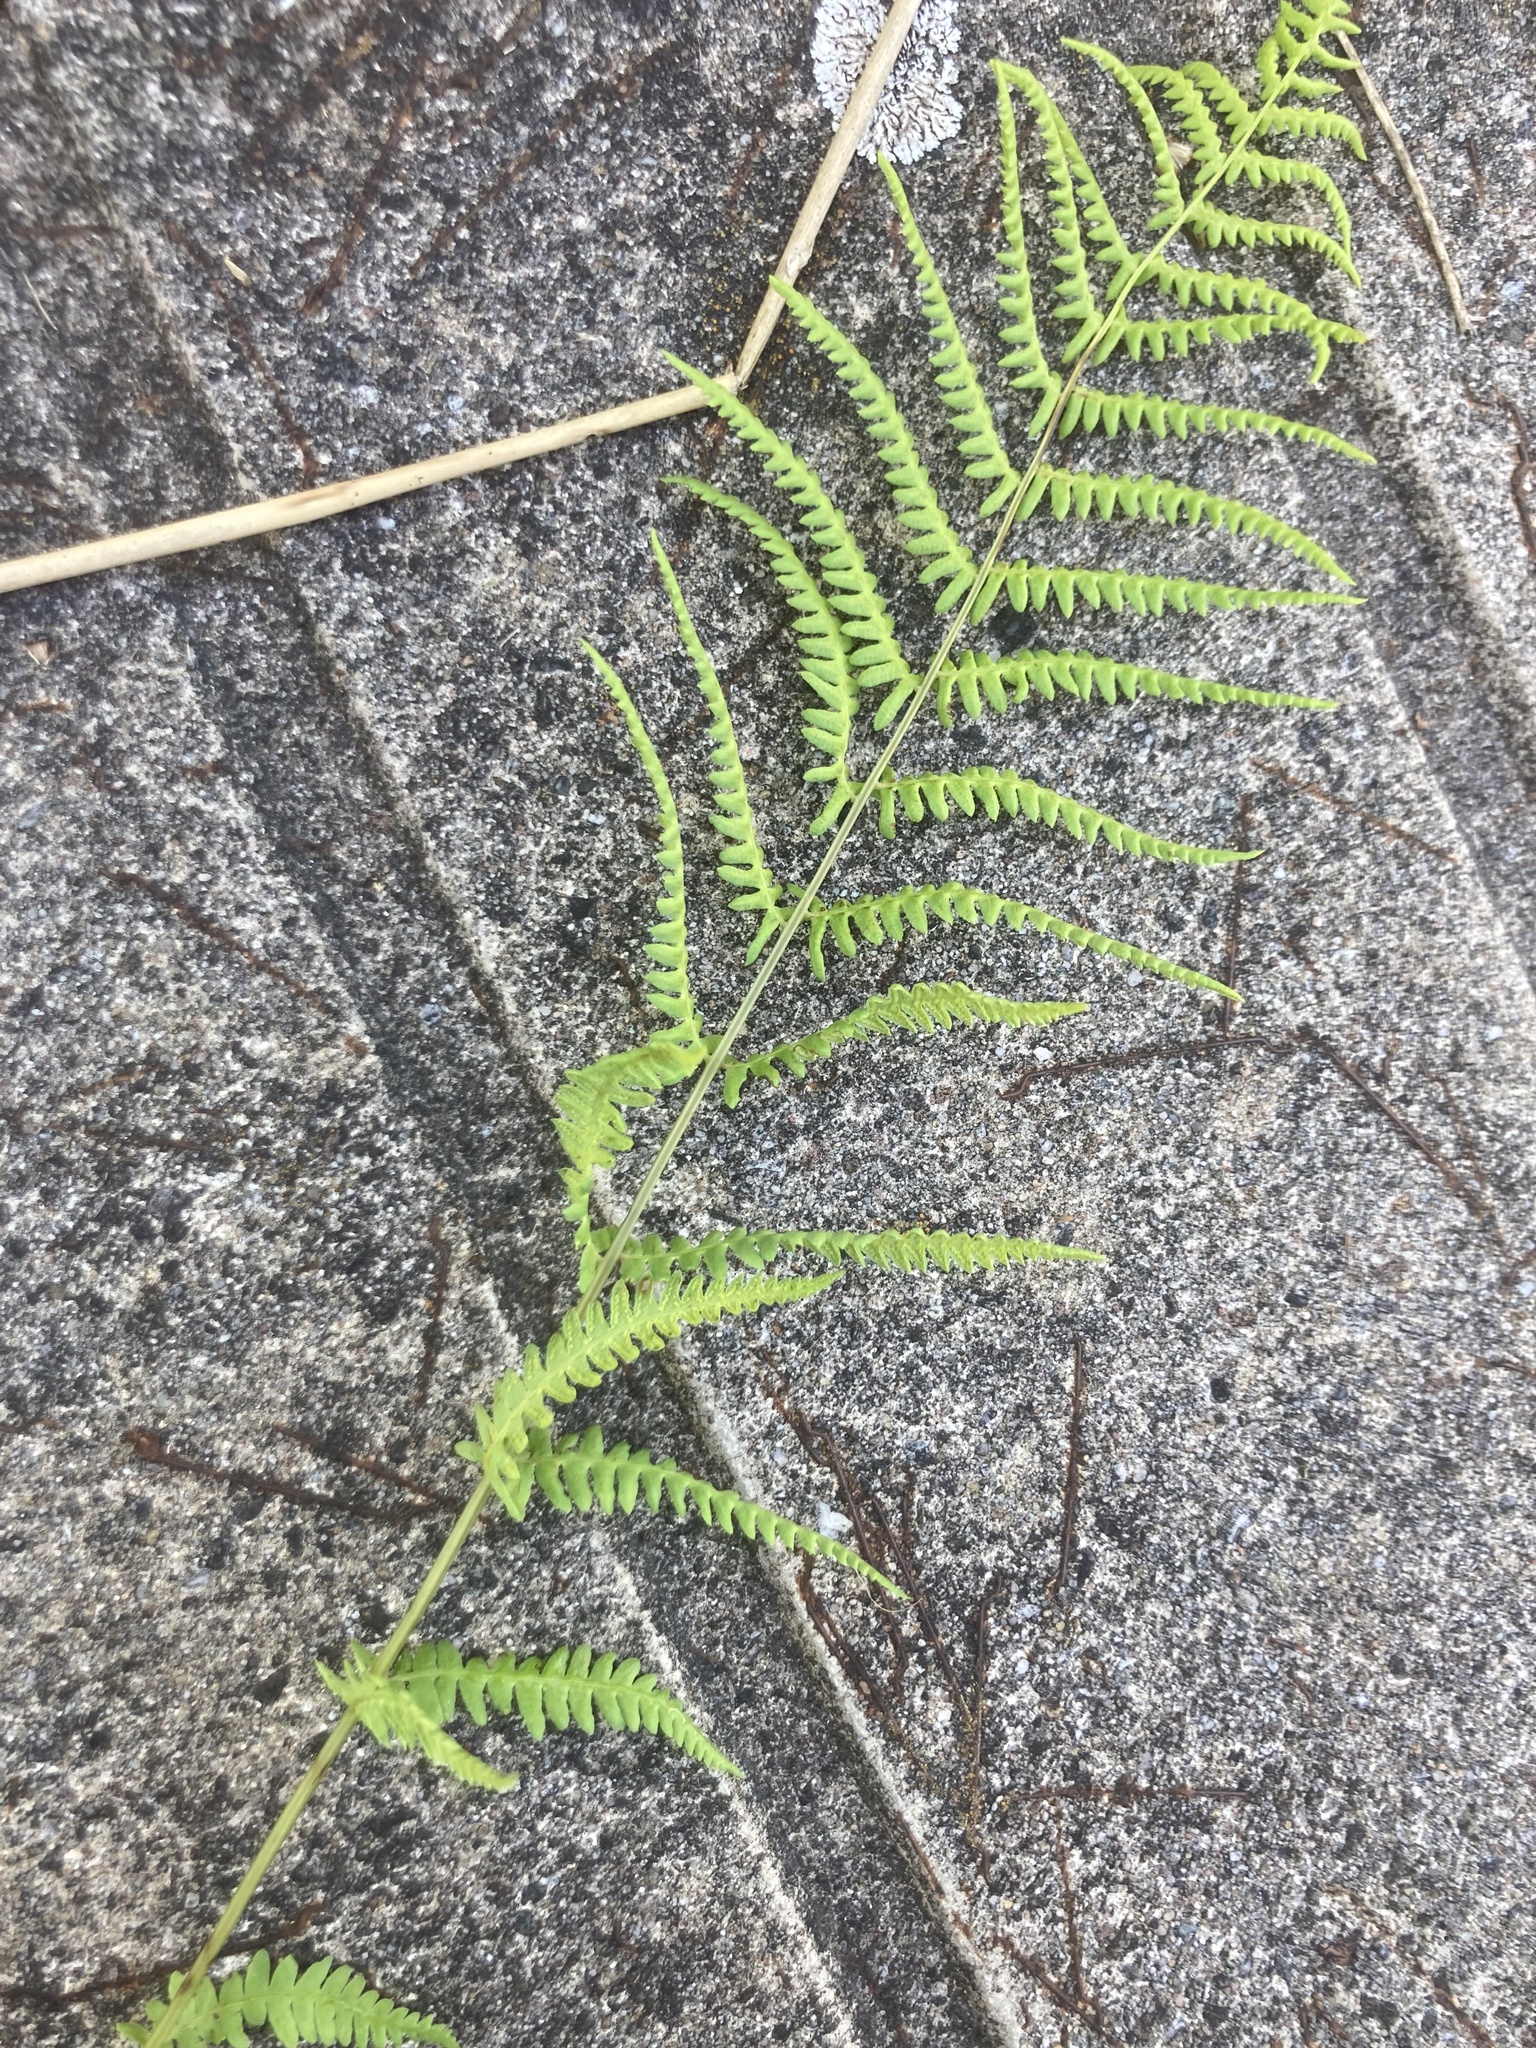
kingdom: Plantae
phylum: Tracheophyta
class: Polypodiopsida
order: Polypodiales
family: Thelypteridaceae
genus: Thelypteris
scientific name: Thelypteris palustris
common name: Marsh fern
